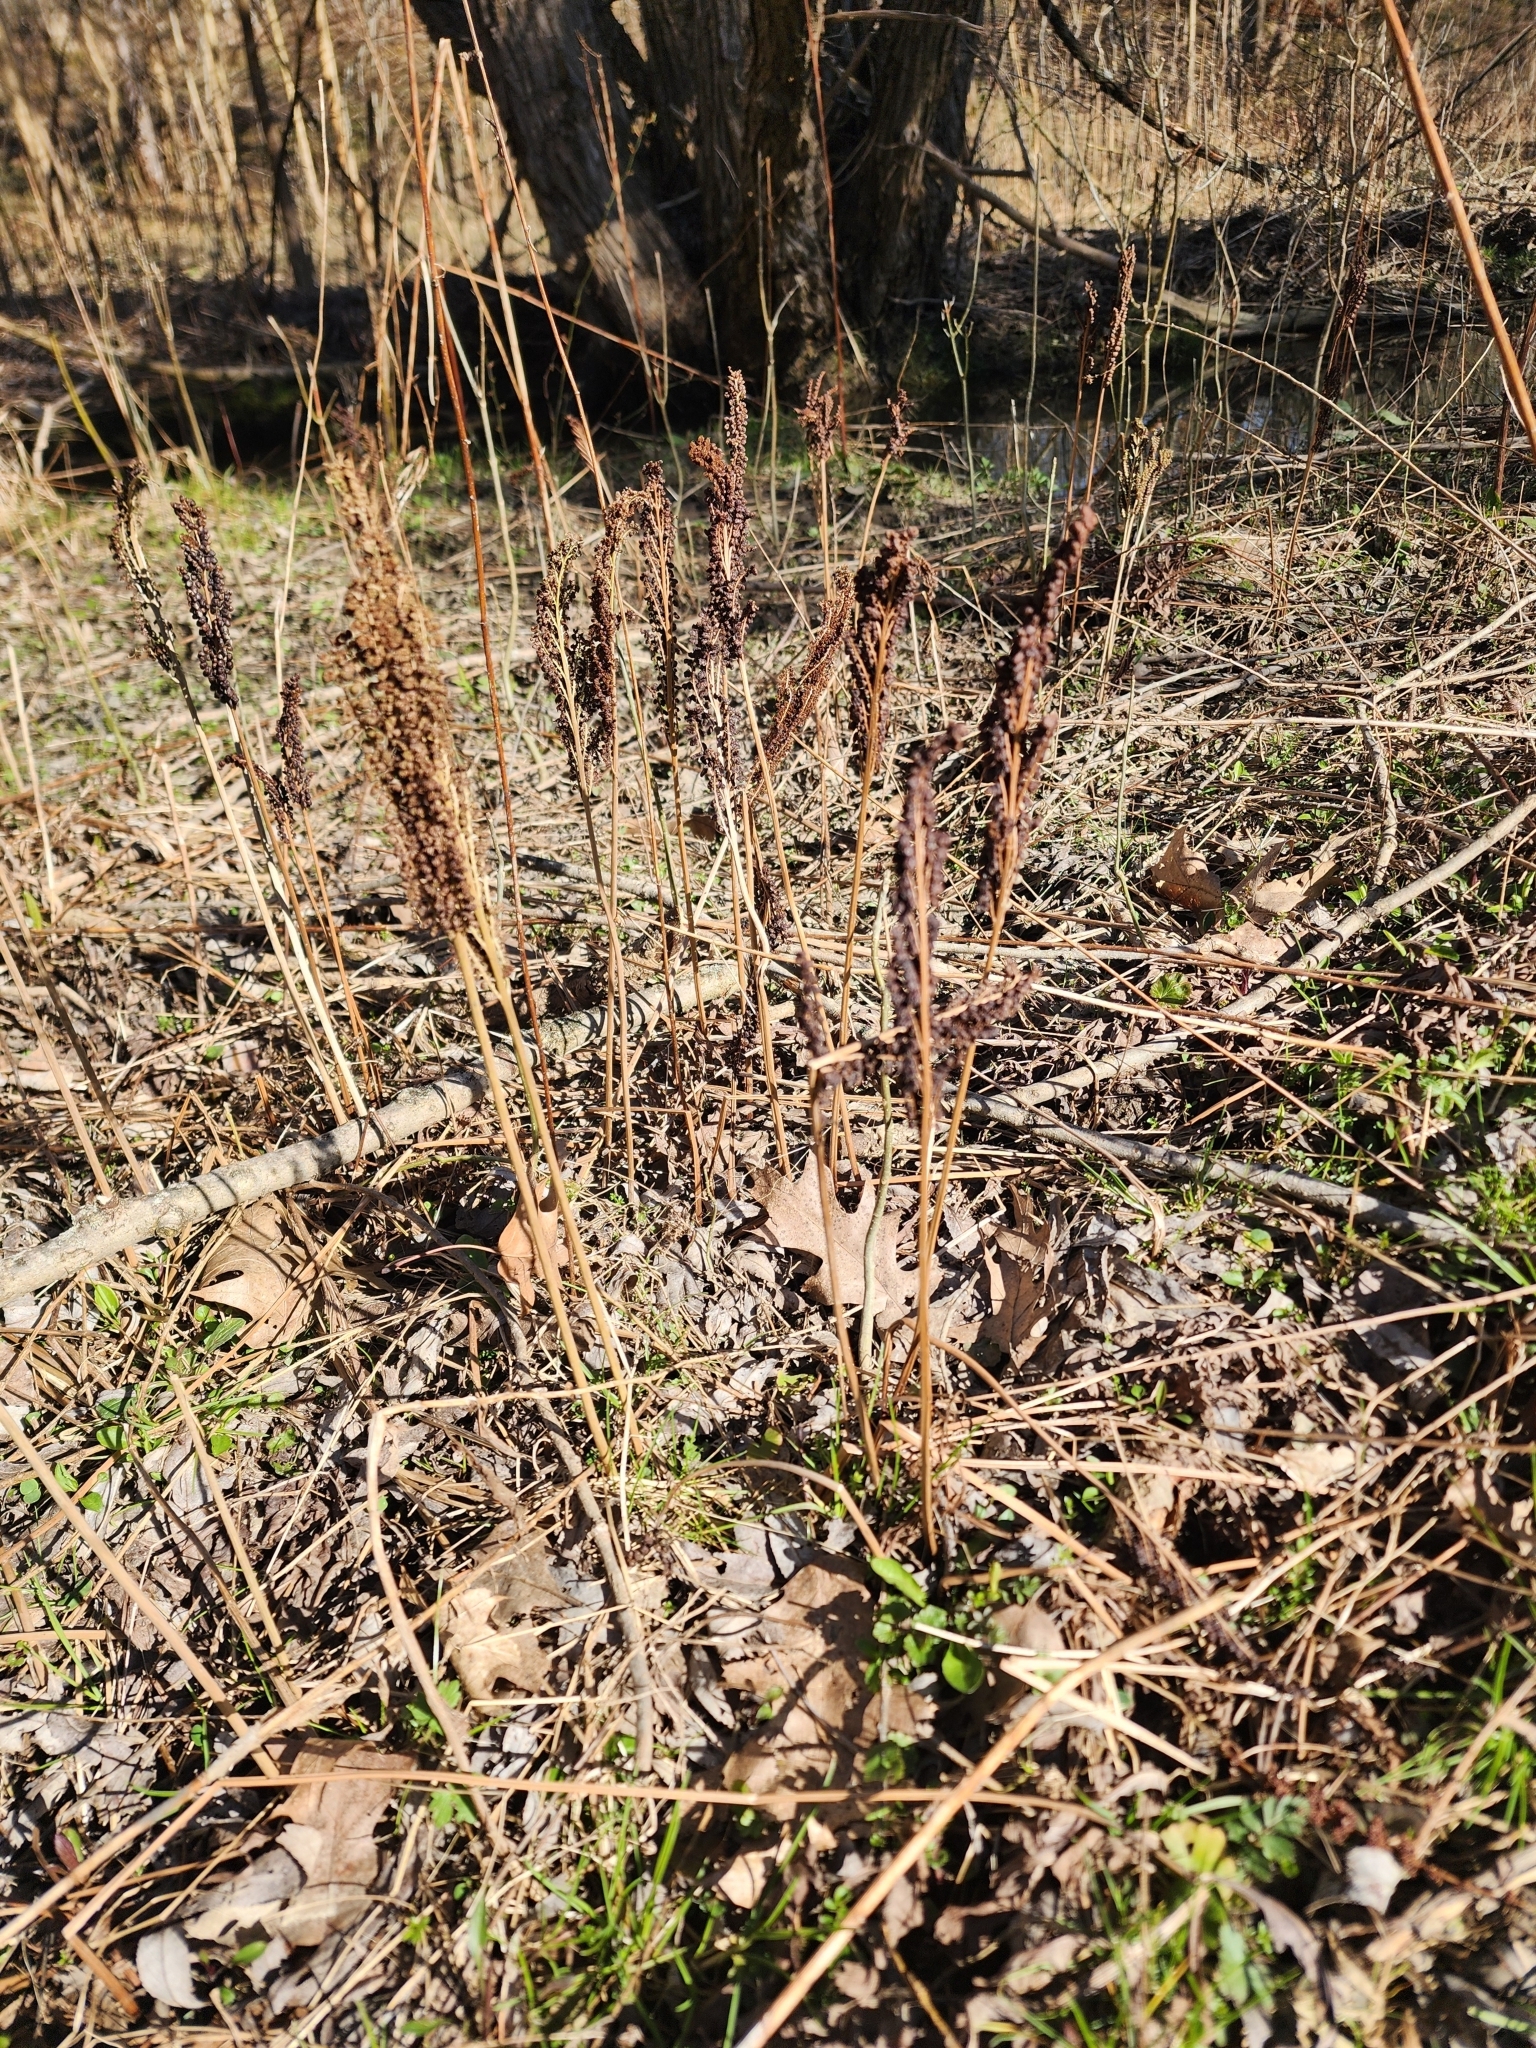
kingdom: Plantae
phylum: Tracheophyta
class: Polypodiopsida
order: Polypodiales
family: Onocleaceae
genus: Onoclea
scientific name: Onoclea sensibilis
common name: Sensitive fern
